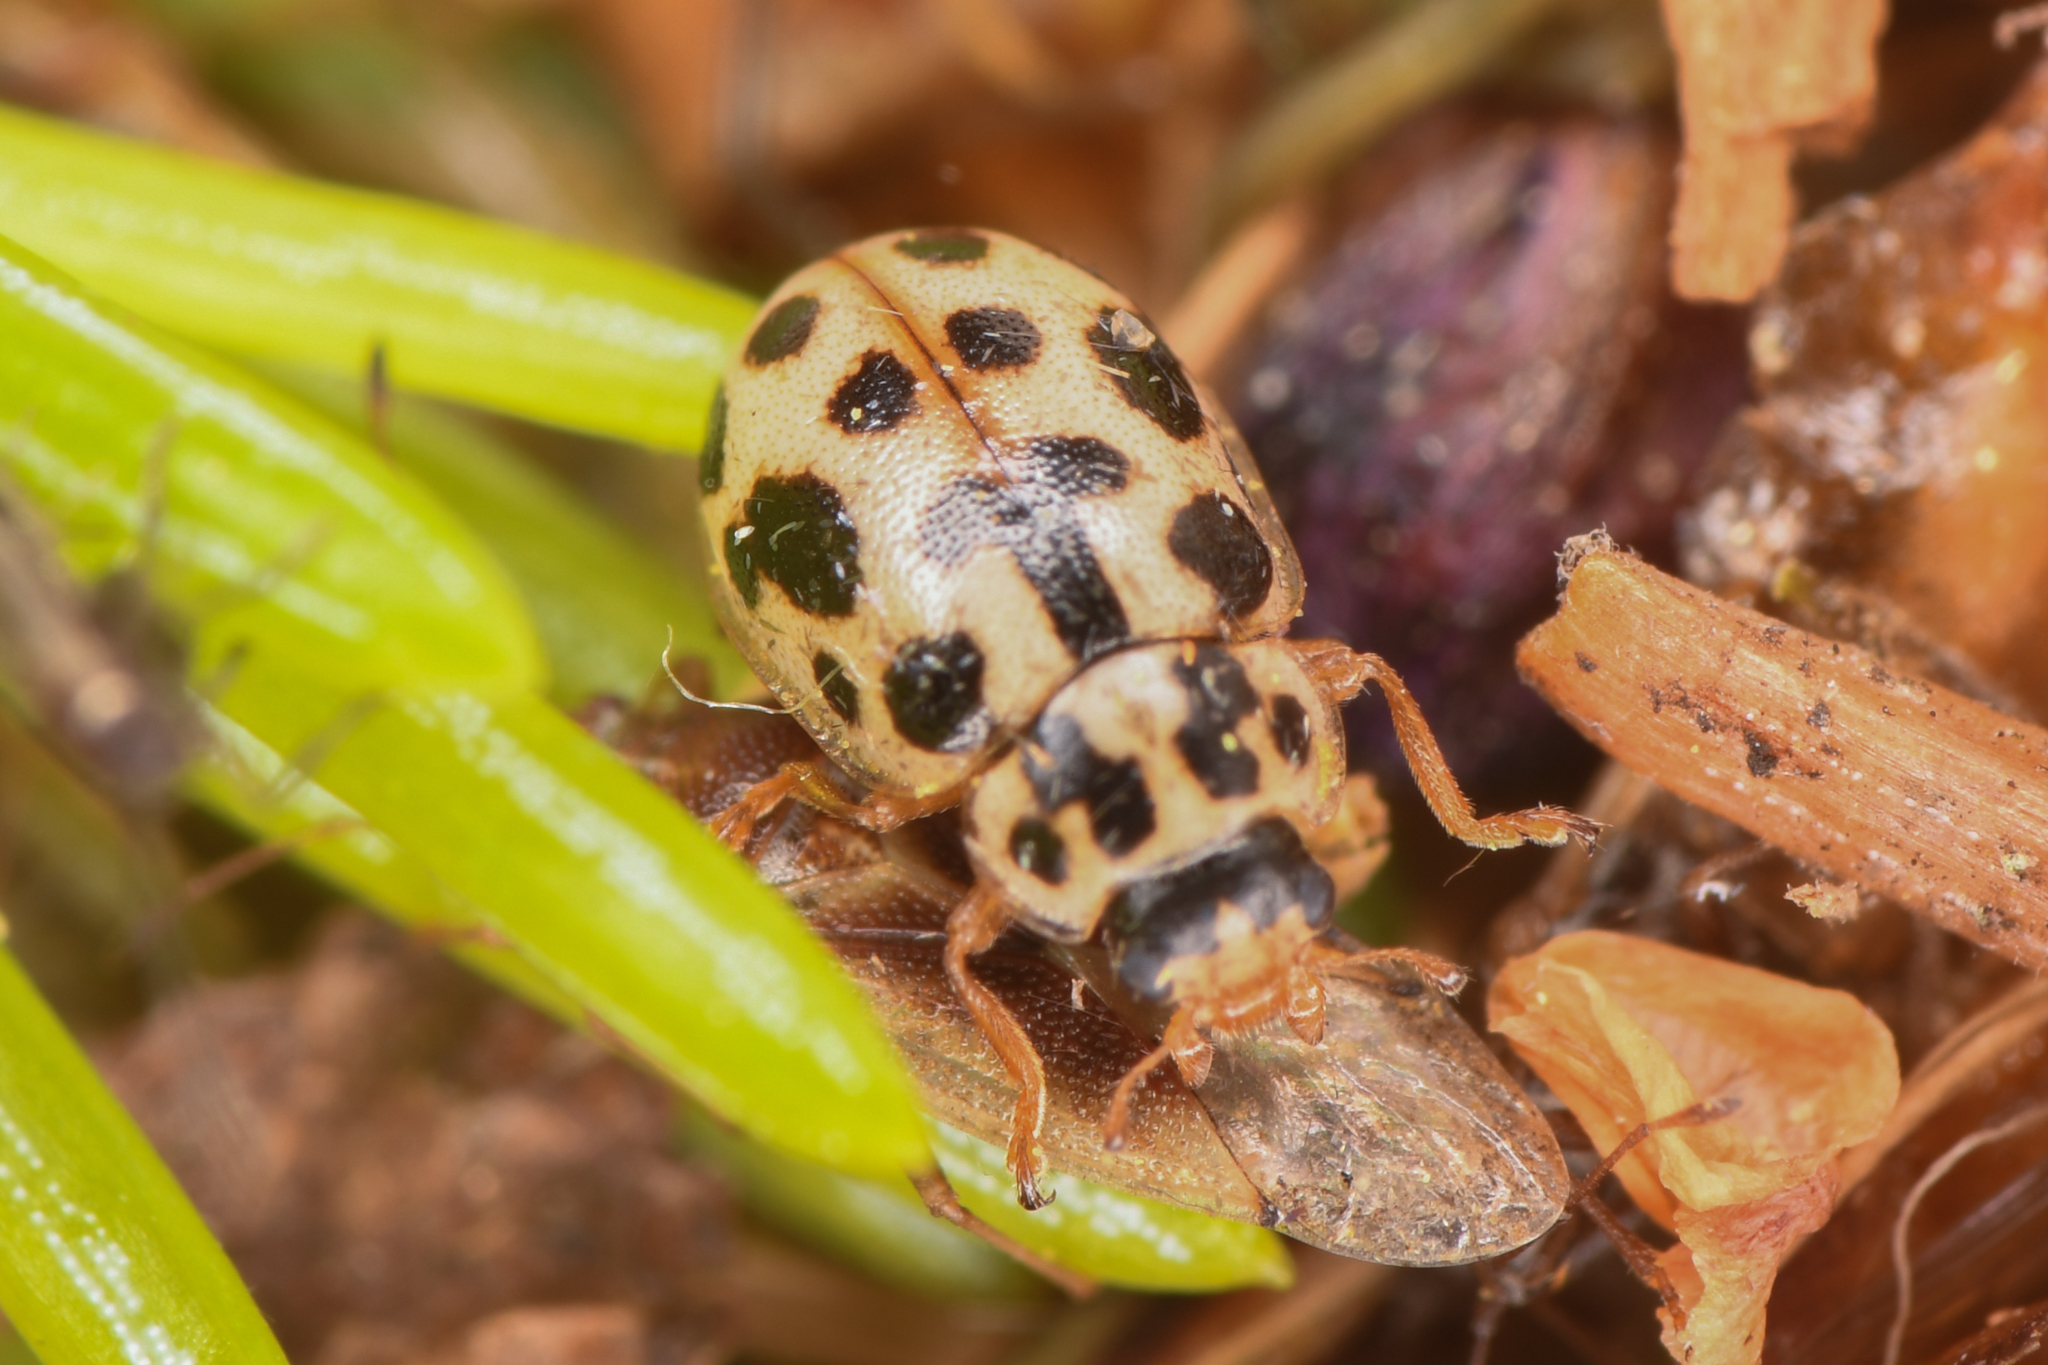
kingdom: Animalia
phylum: Arthropoda
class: Insecta
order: Coleoptera
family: Coccinellidae
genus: Anisosticta
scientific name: Anisosticta bitriangularis
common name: Marsh lady beetle
